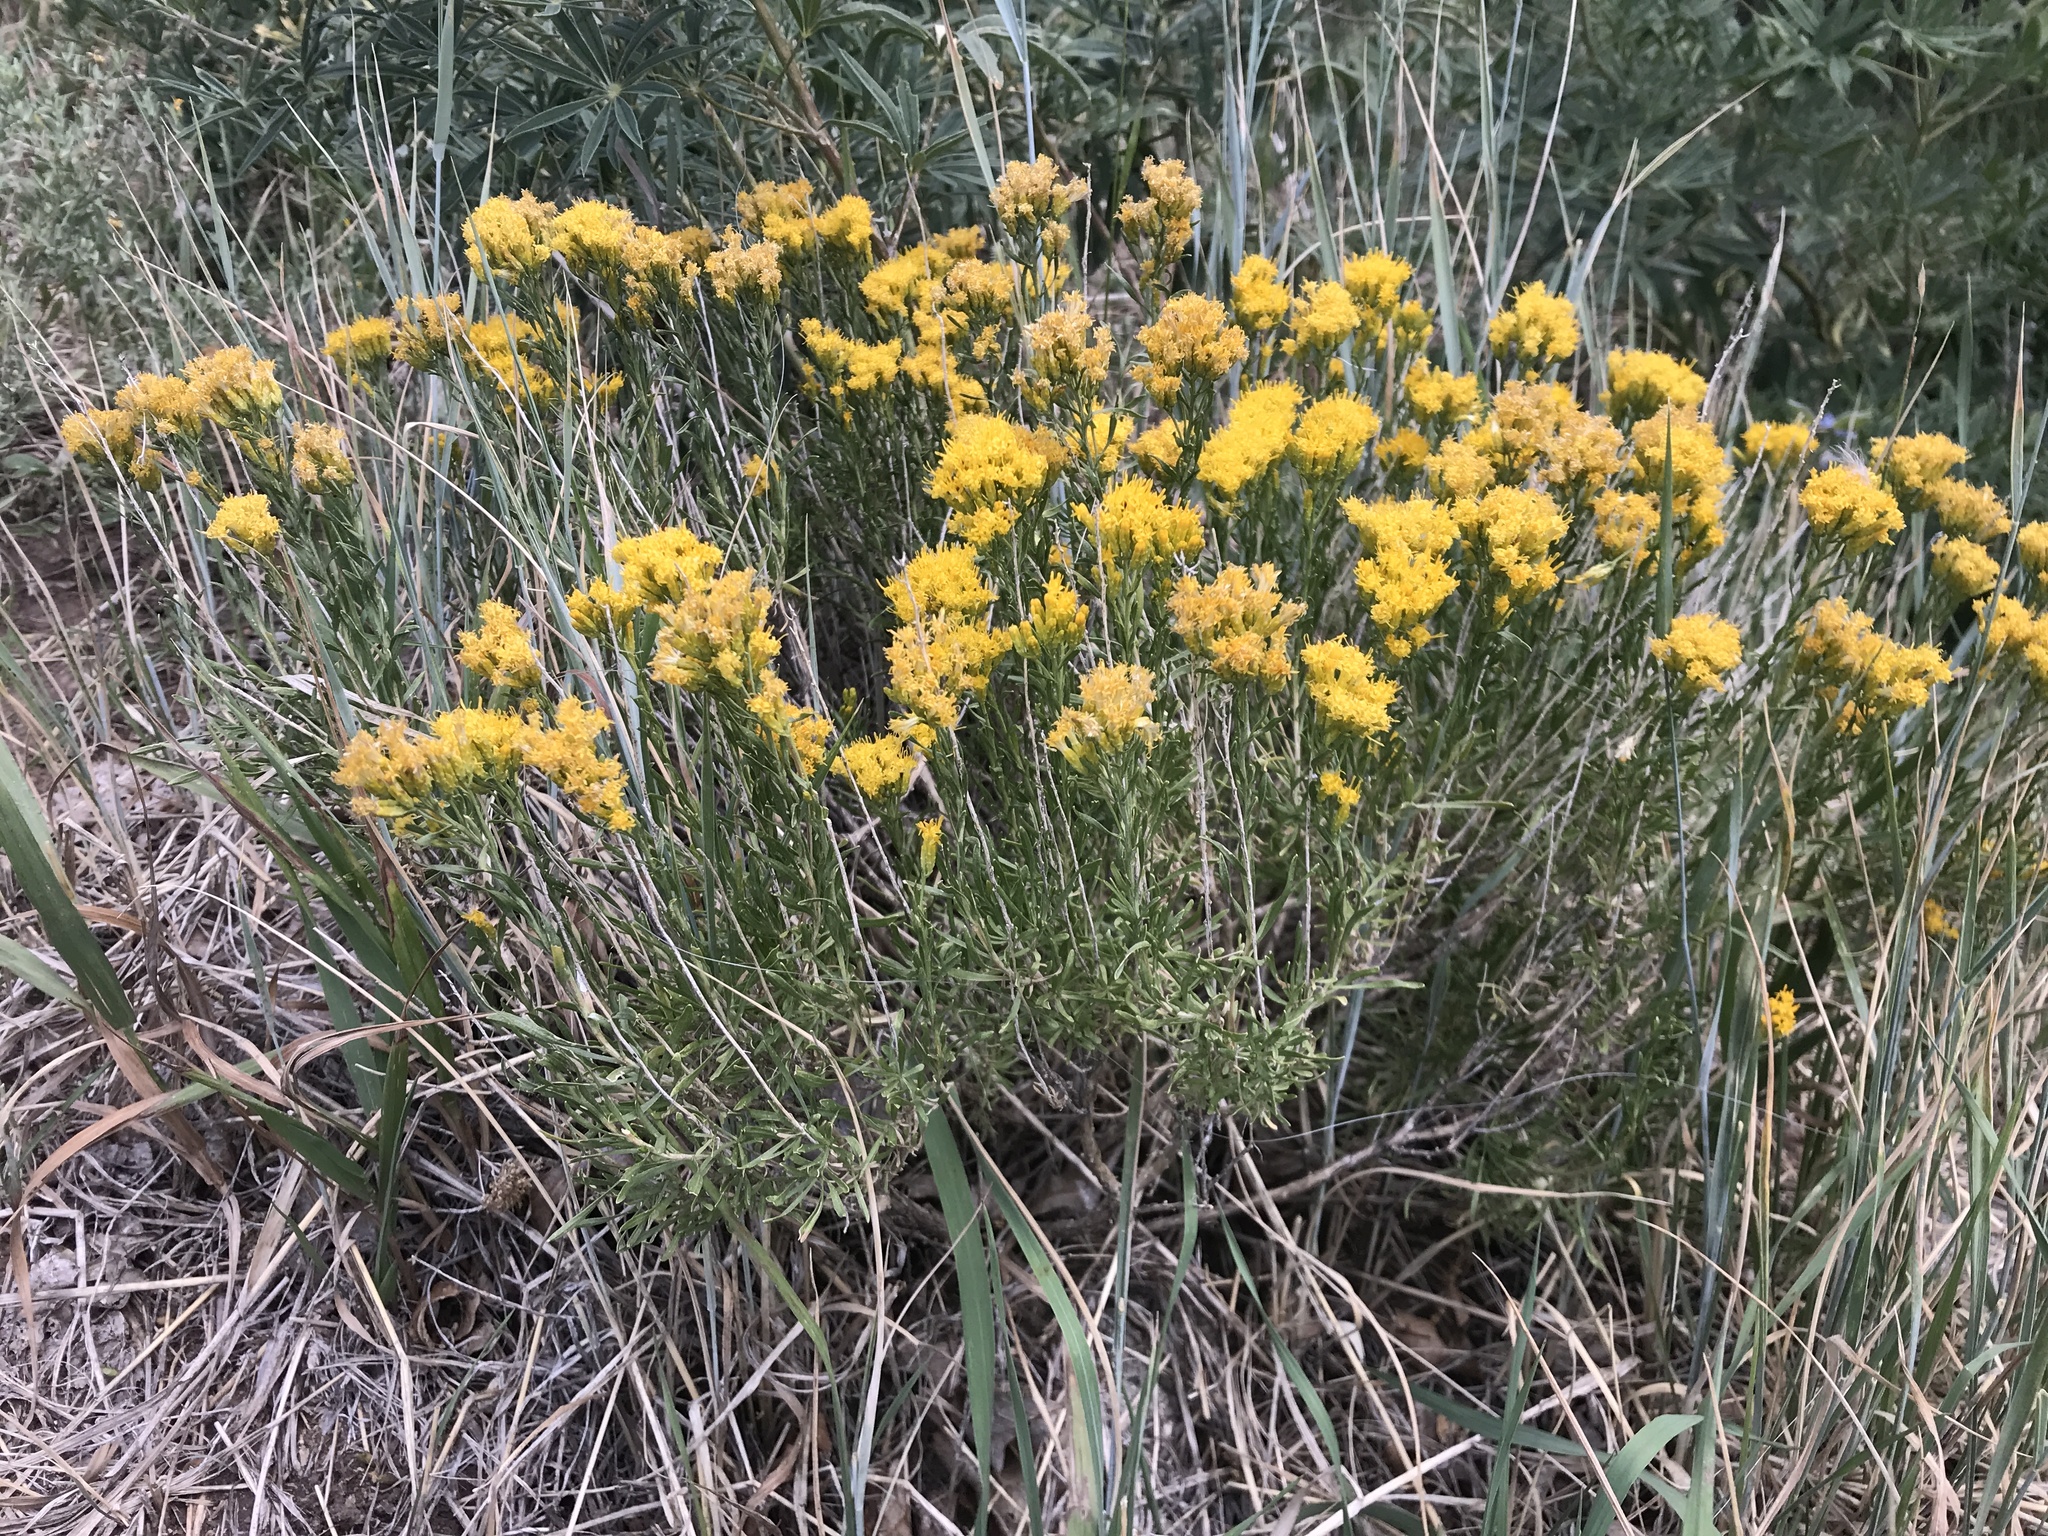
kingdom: Plantae
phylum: Tracheophyta
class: Magnoliopsida
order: Asterales
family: Asteraceae
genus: Chrysothamnus
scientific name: Chrysothamnus viscidiflorus
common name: Yellow rabbitbrush
